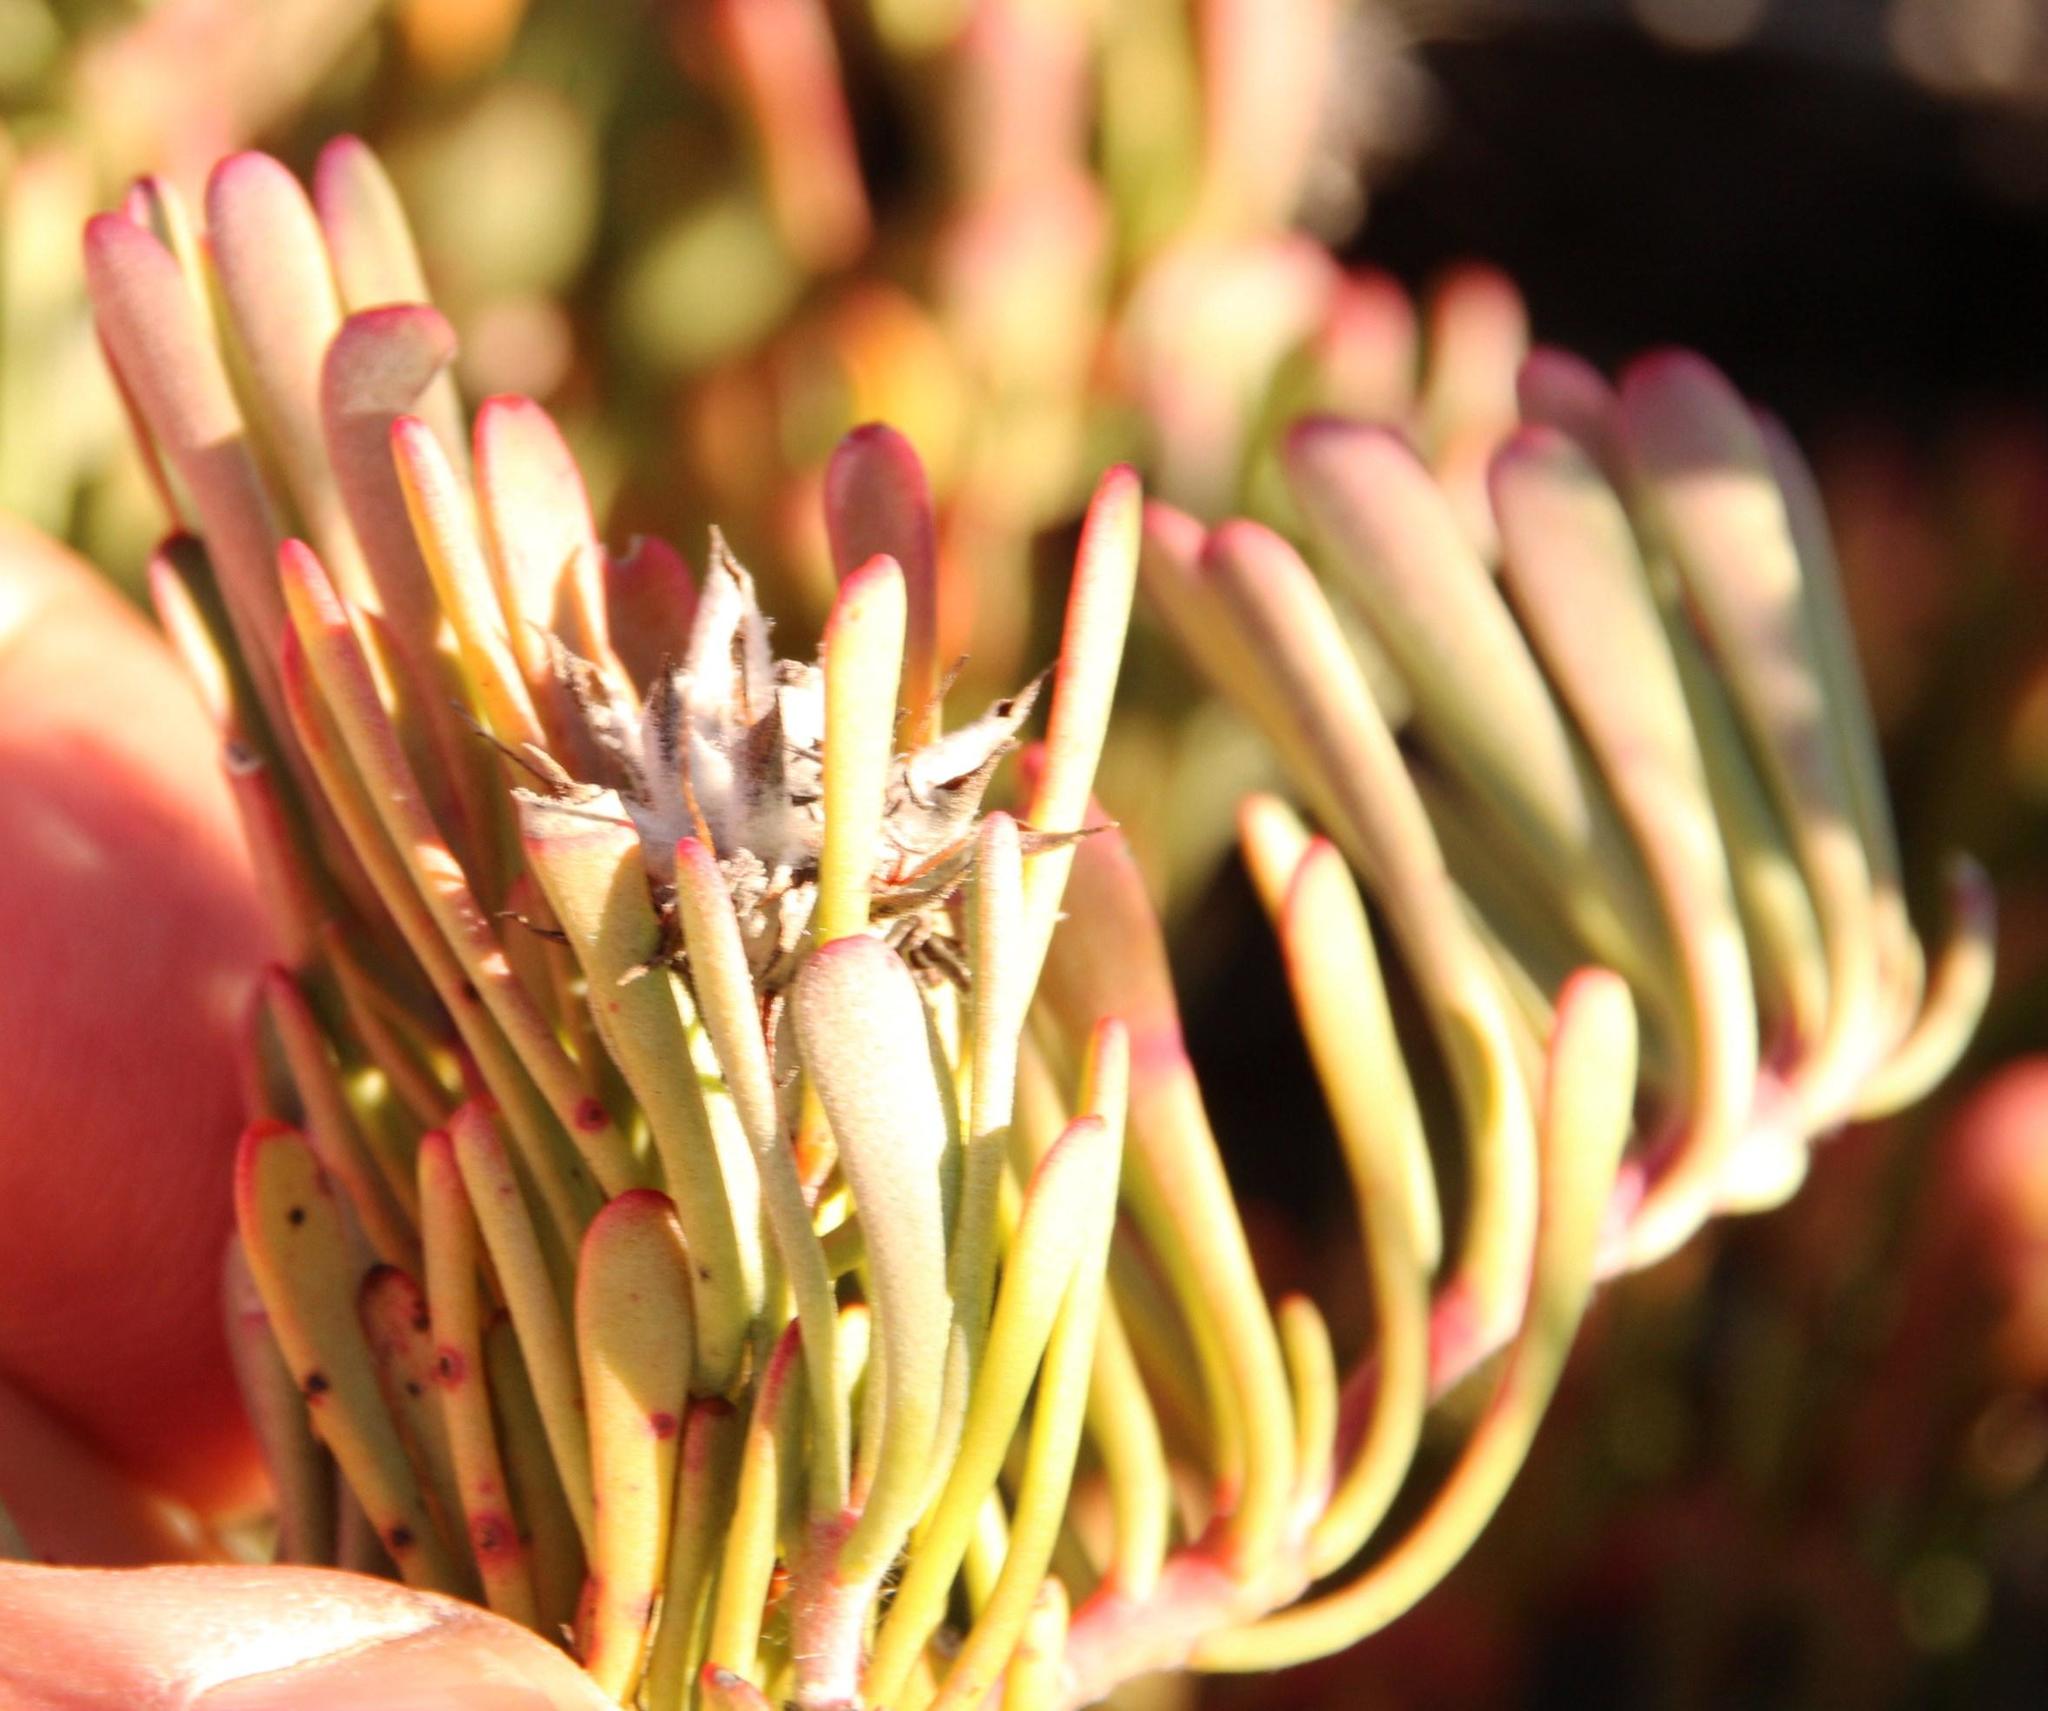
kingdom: Plantae
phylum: Tracheophyta
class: Magnoliopsida
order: Proteales
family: Proteaceae
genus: Vexatorella
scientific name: Vexatorella obtusata
